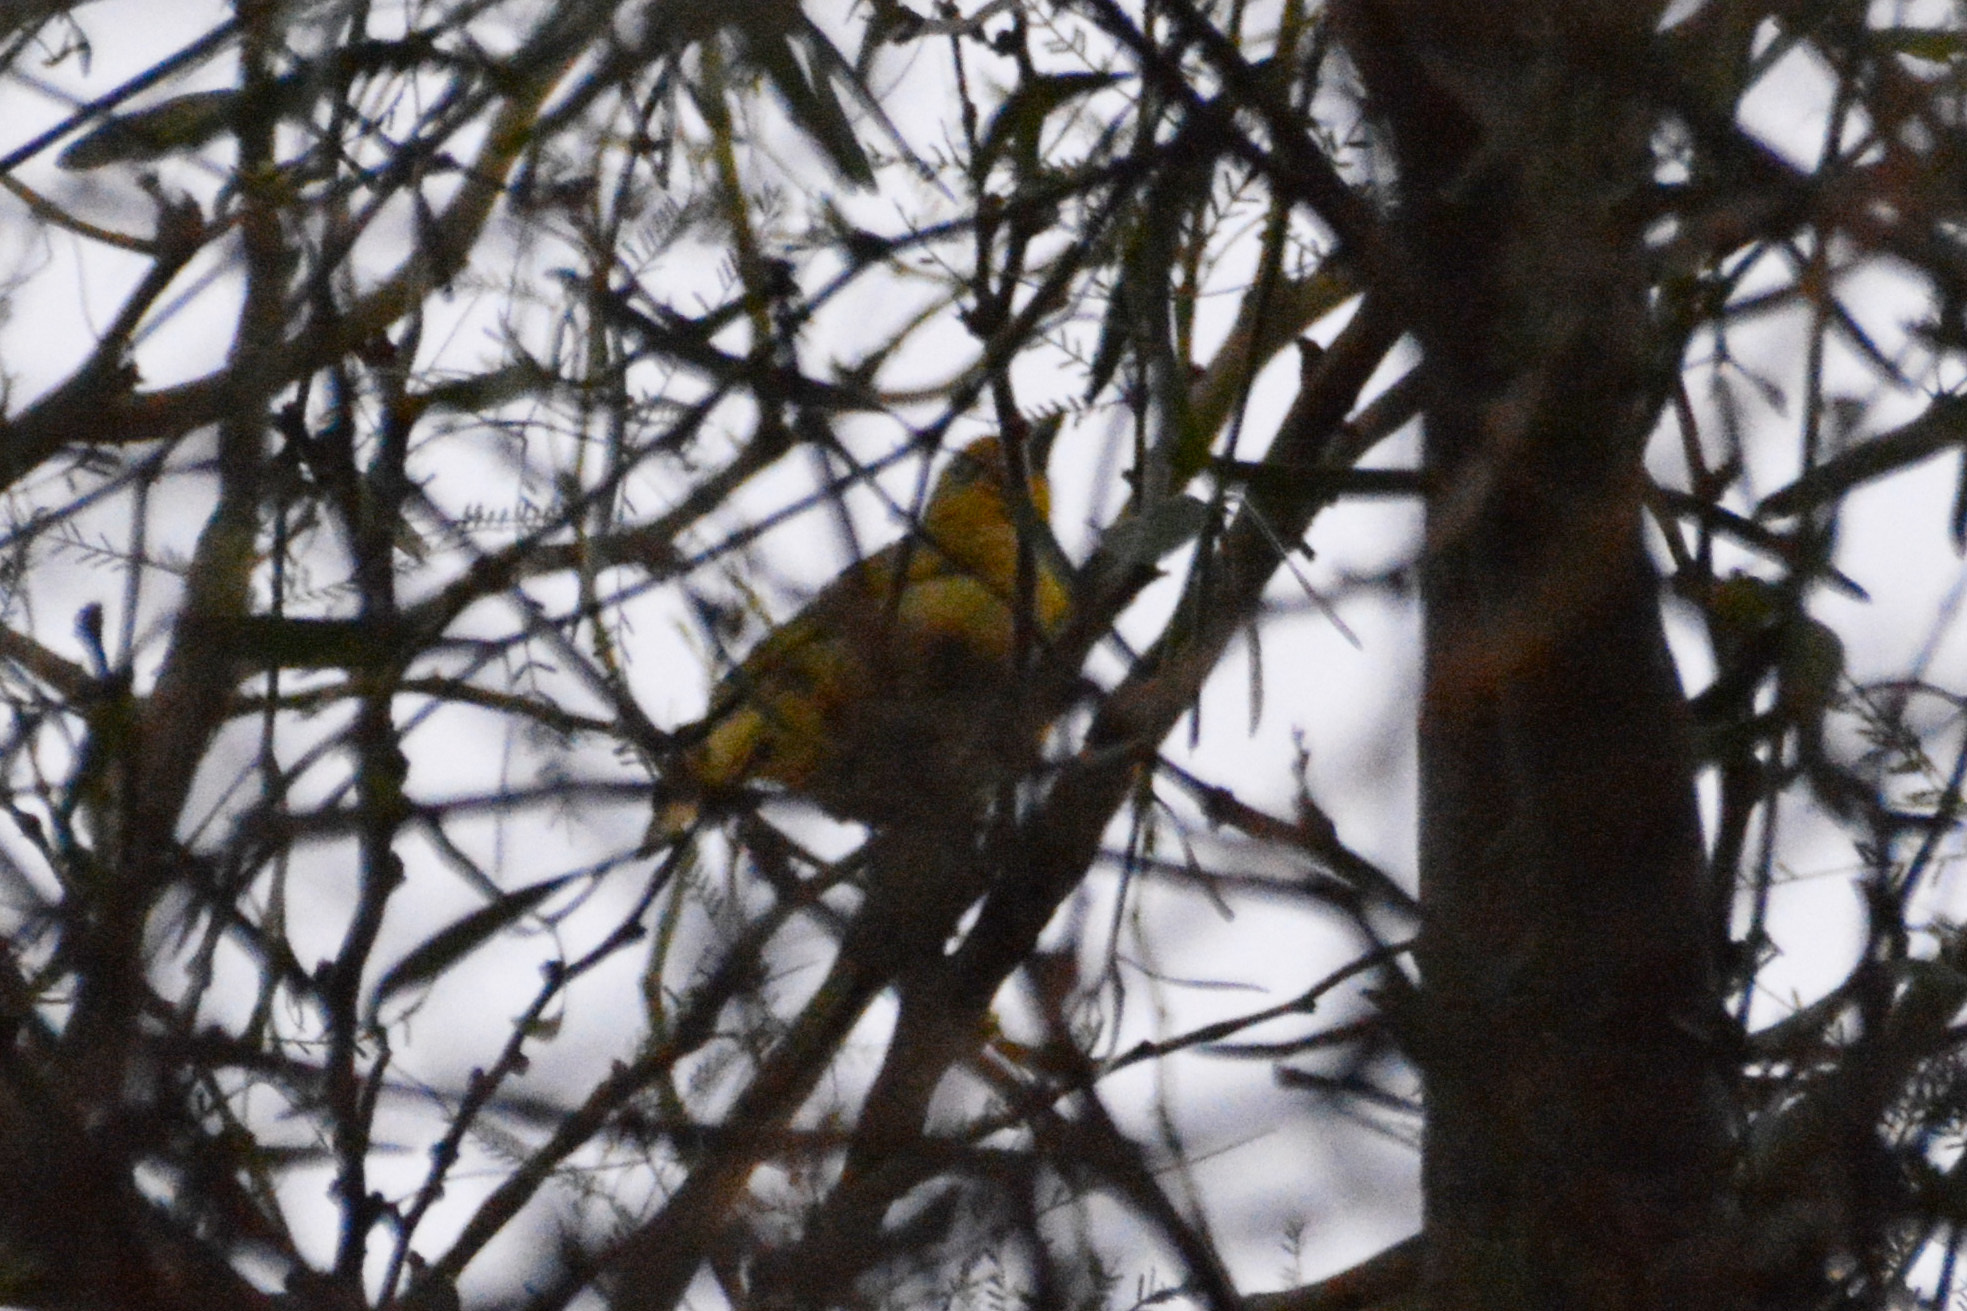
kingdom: Animalia
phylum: Chordata
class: Aves
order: Passeriformes
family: Cardinalidae
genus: Piranga
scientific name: Piranga flava
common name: Red tanager
